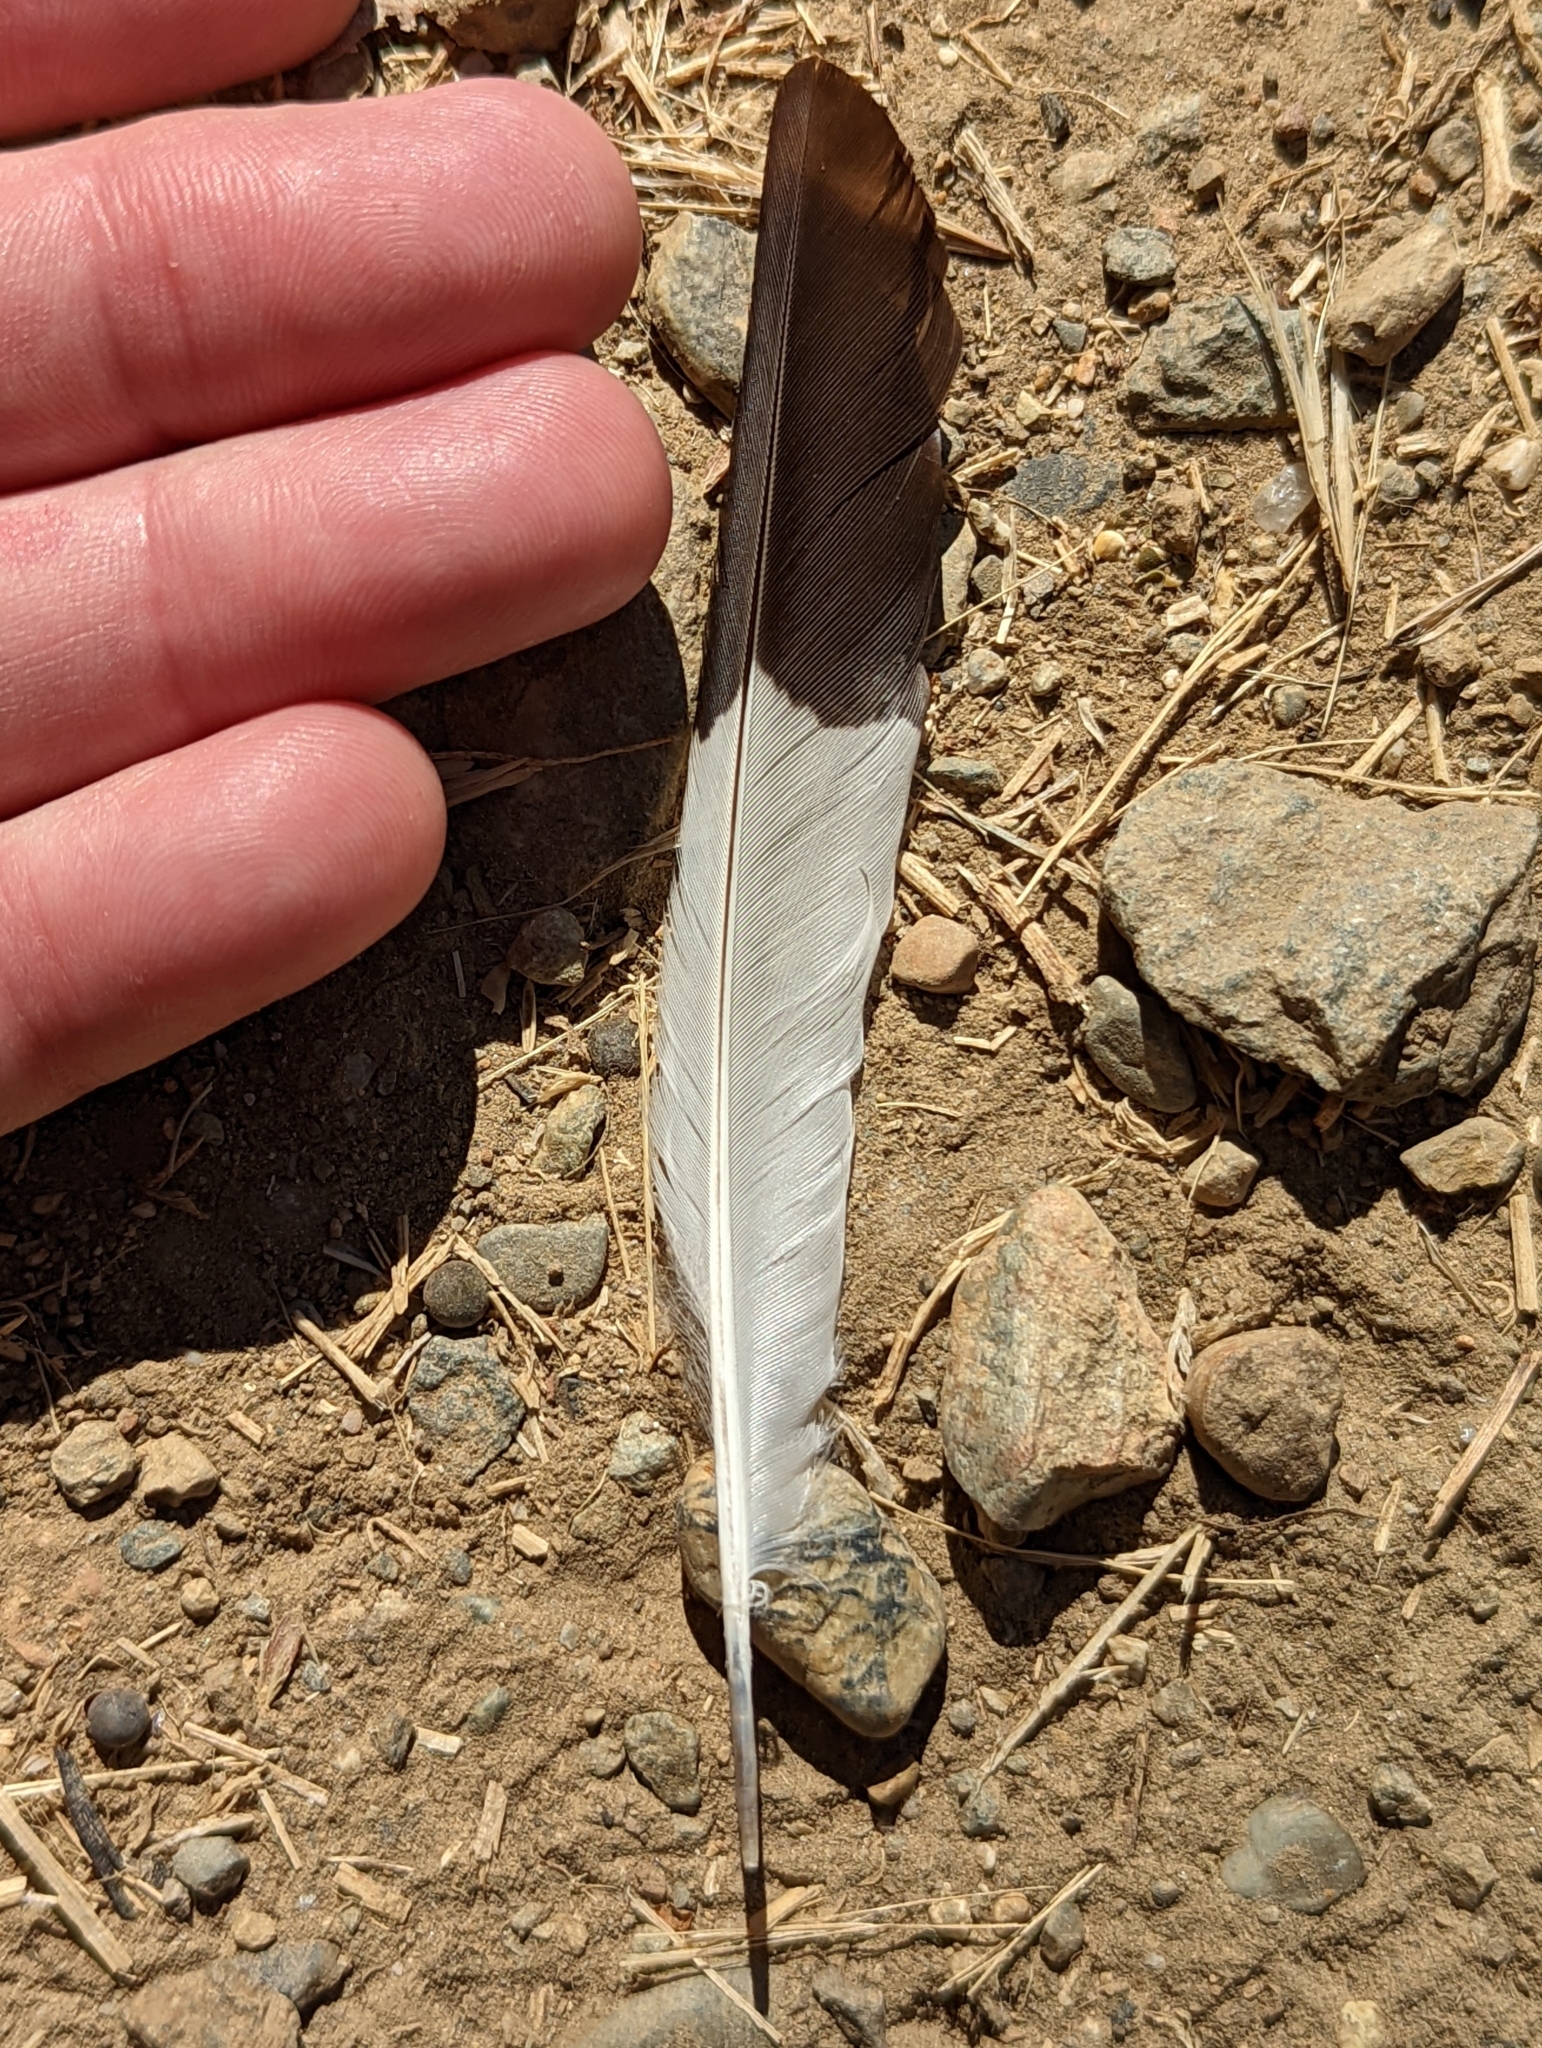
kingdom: Animalia
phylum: Chordata
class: Aves
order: Piciformes
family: Picidae
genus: Melanerpes
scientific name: Melanerpes formicivorus
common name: Acorn woodpecker
